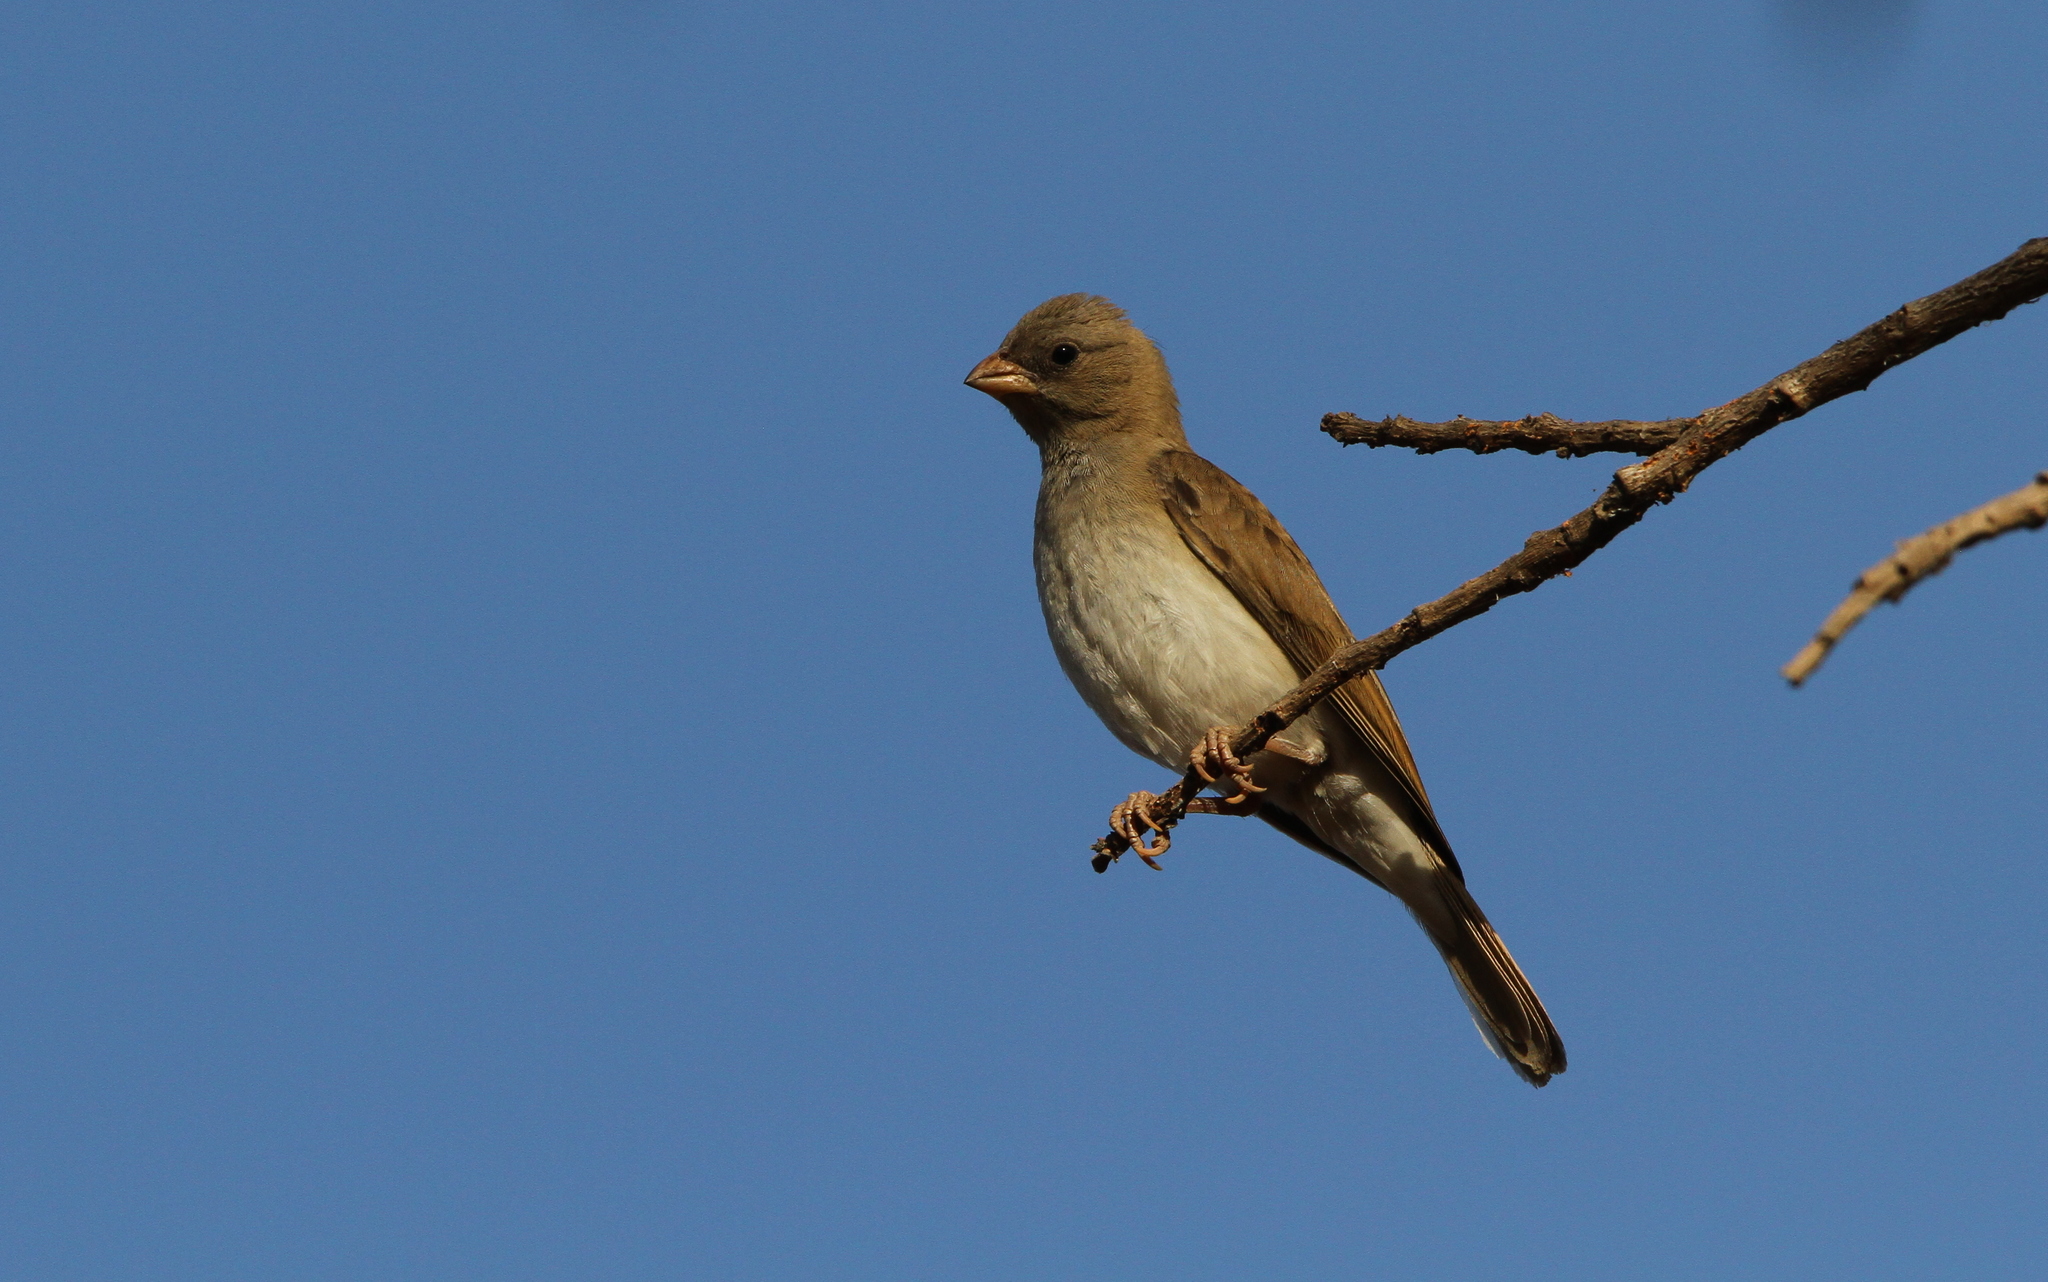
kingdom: Animalia
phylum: Chordata
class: Aves
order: Passeriformes
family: Passeridae
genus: Passer
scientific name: Passer griseus
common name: Northern grey-headed sparrow
